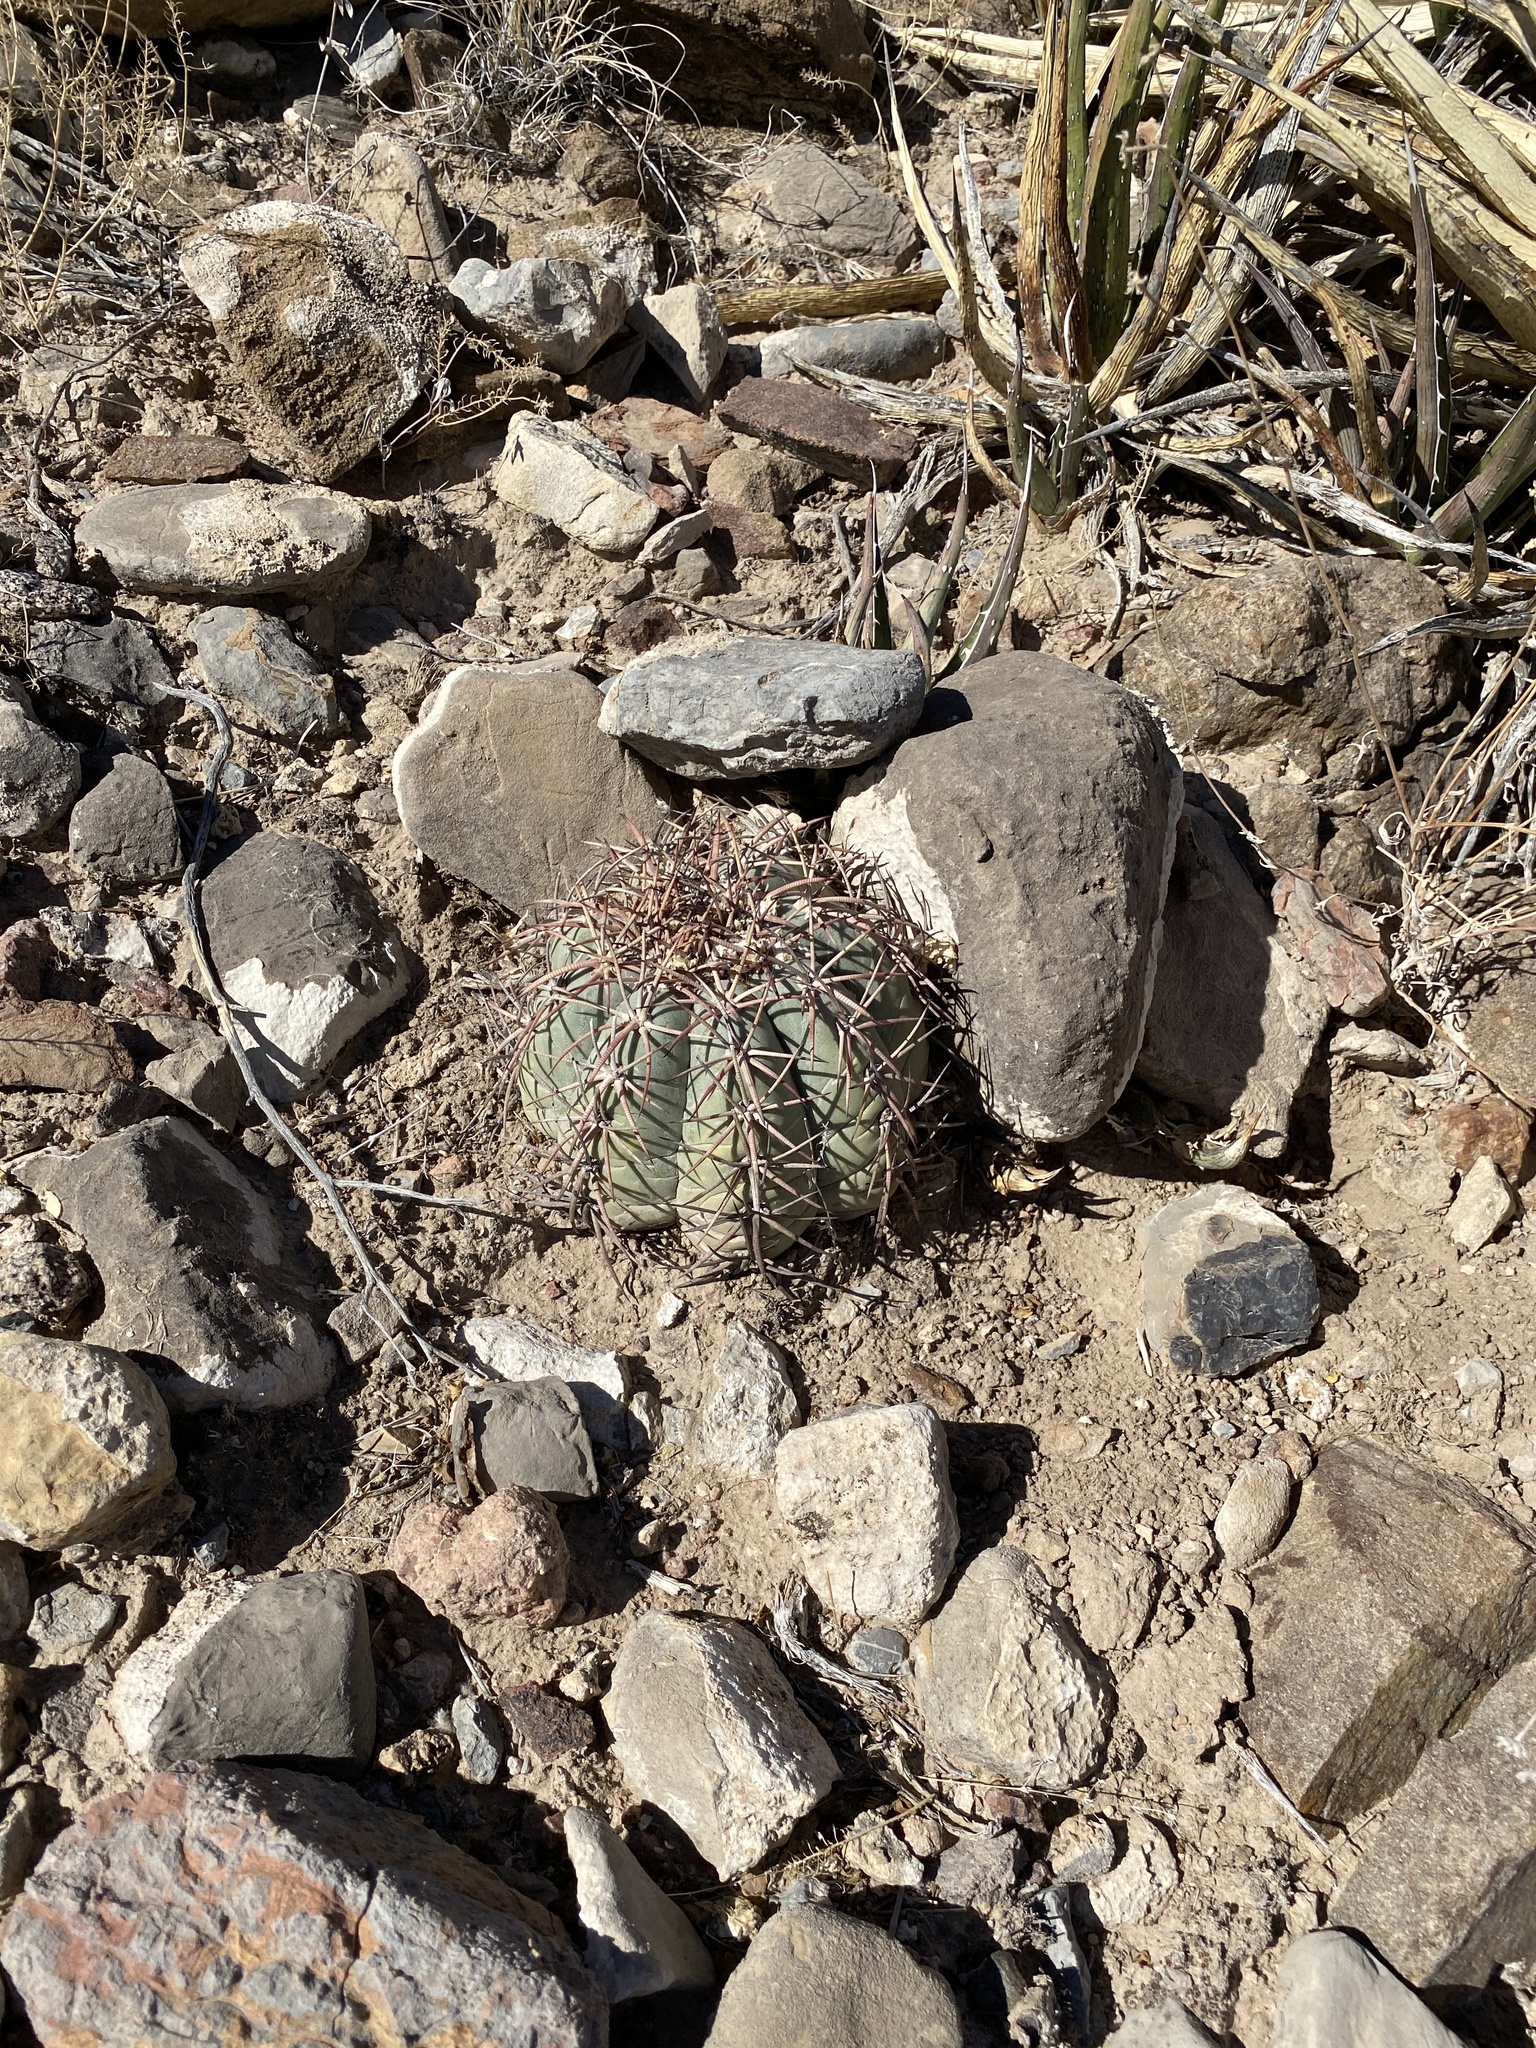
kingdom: Plantae
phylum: Tracheophyta
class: Magnoliopsida
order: Caryophyllales
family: Cactaceae
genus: Echinocactus
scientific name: Echinocactus horizonthalonius
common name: Devilshead
